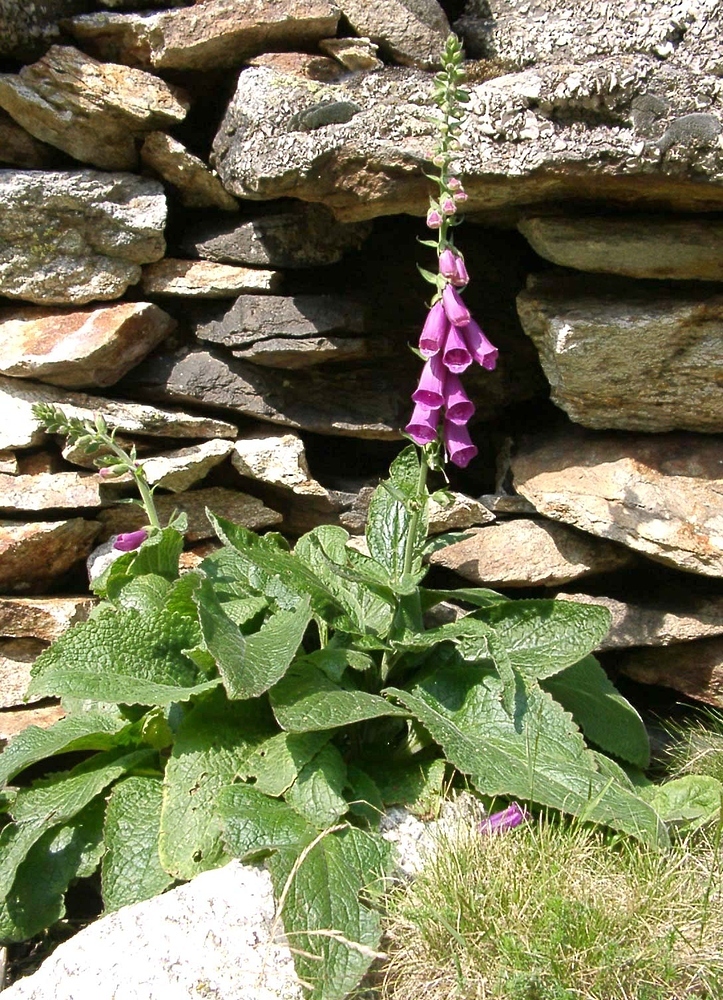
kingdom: Plantae
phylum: Tracheophyta
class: Magnoliopsida
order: Lamiales
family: Plantaginaceae
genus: Digitalis
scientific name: Digitalis purpurea
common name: Foxglove
